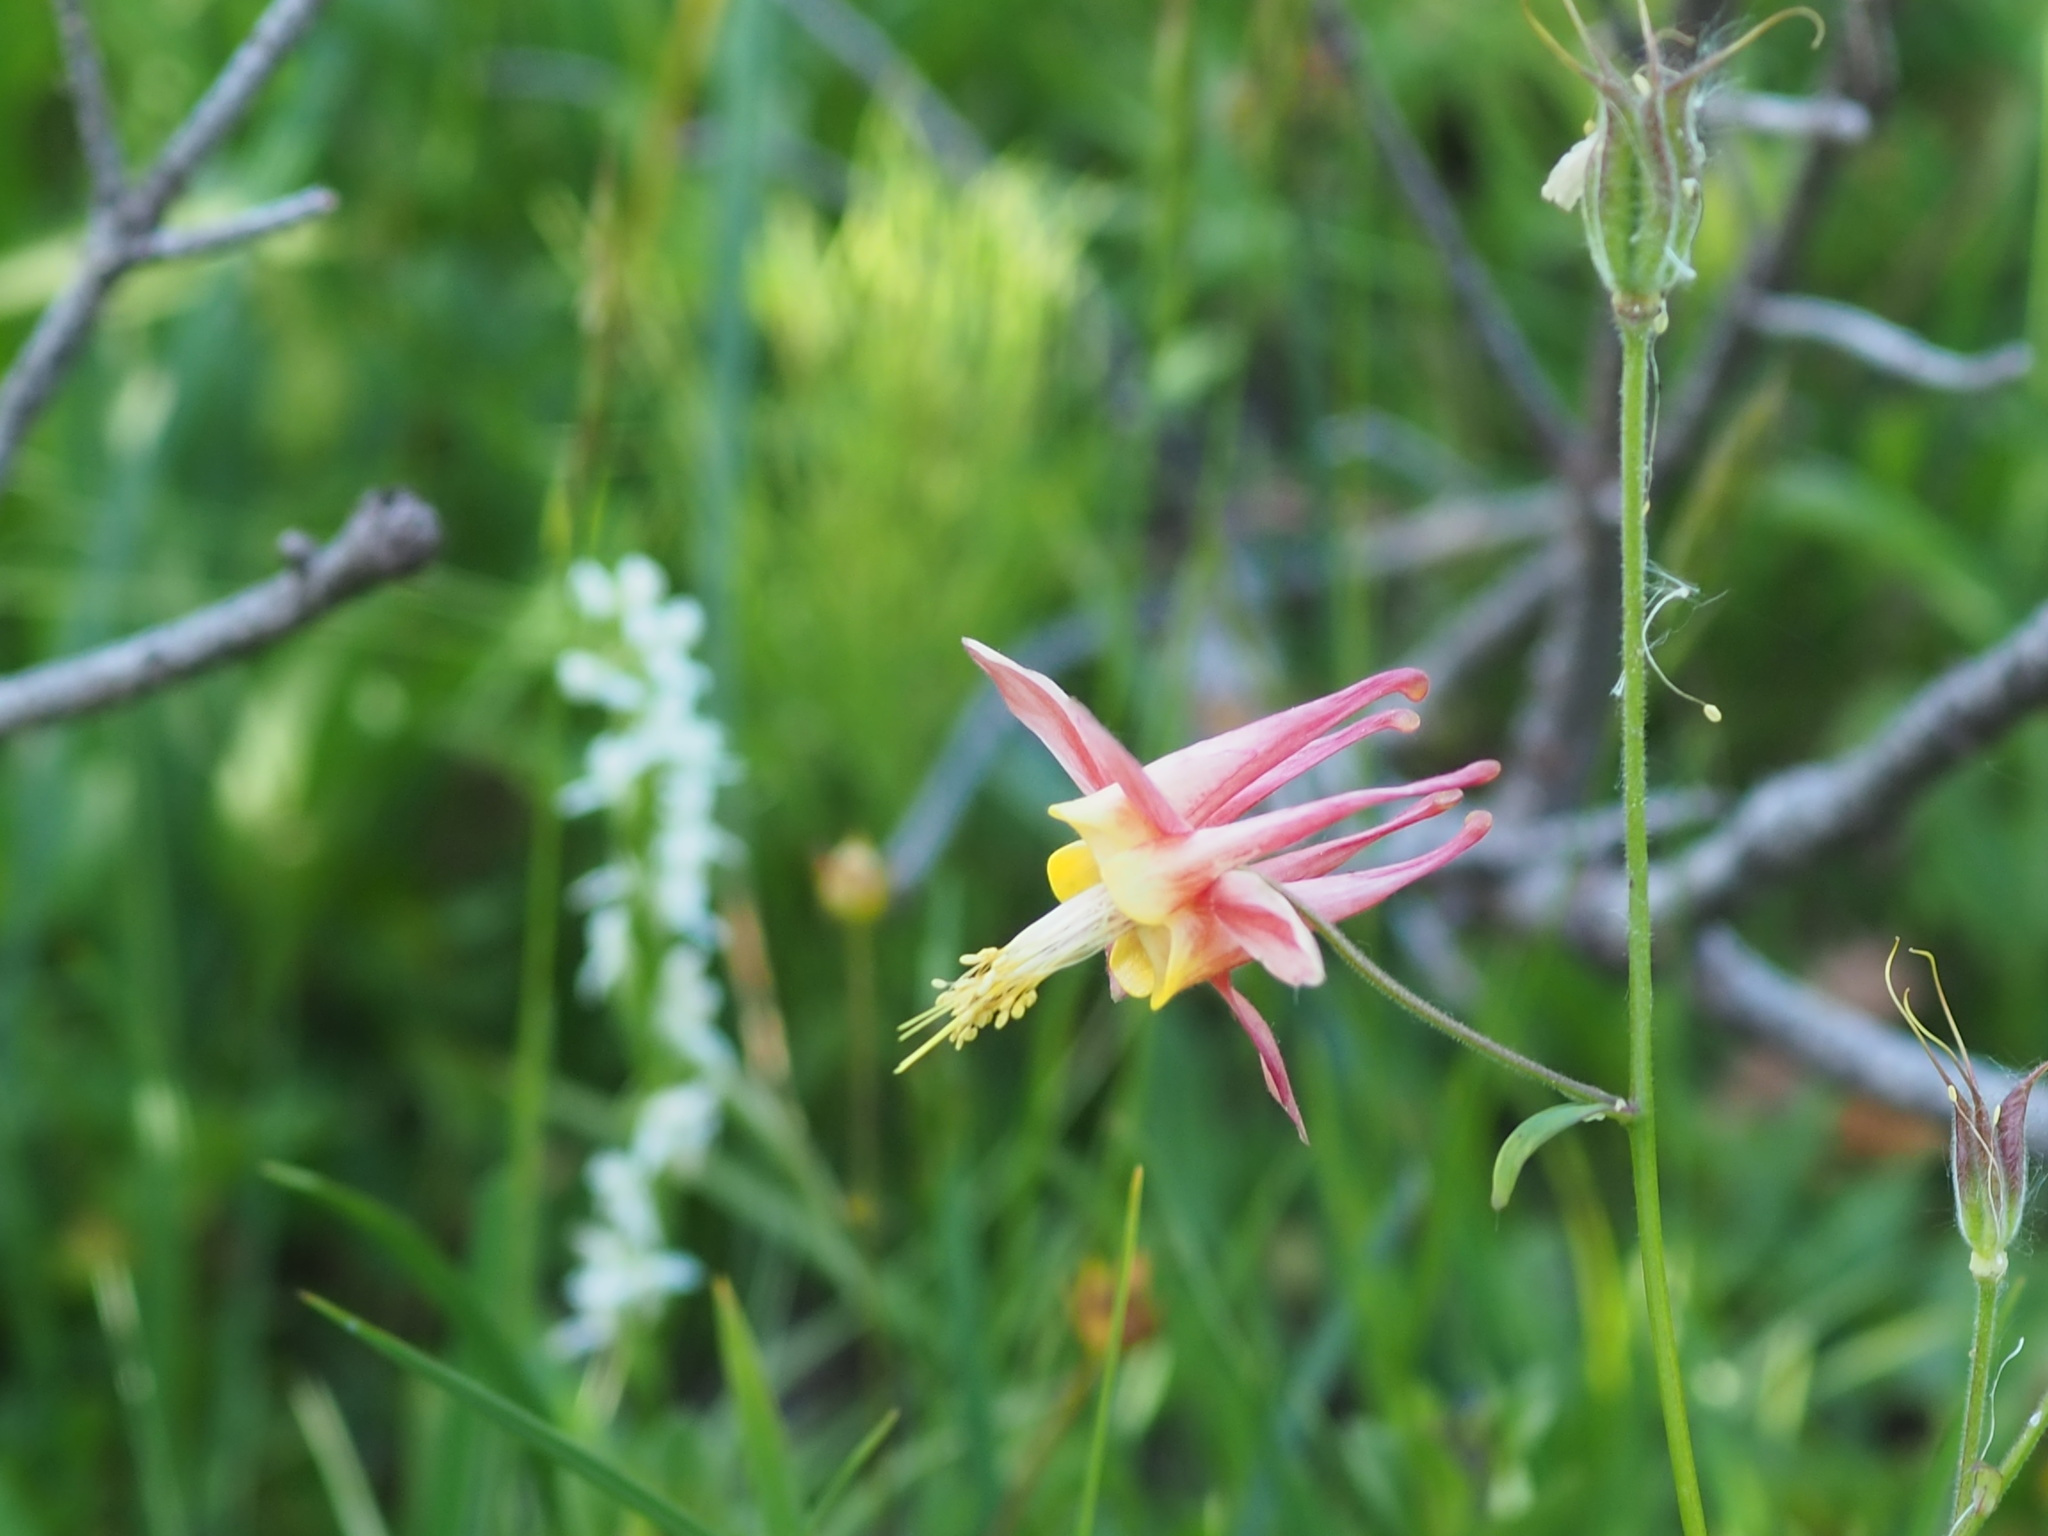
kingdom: Plantae
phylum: Tracheophyta
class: Magnoliopsida
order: Ranunculales
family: Ranunculaceae
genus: Aquilegia
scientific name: Aquilegia formosa
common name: Sitka columbine
